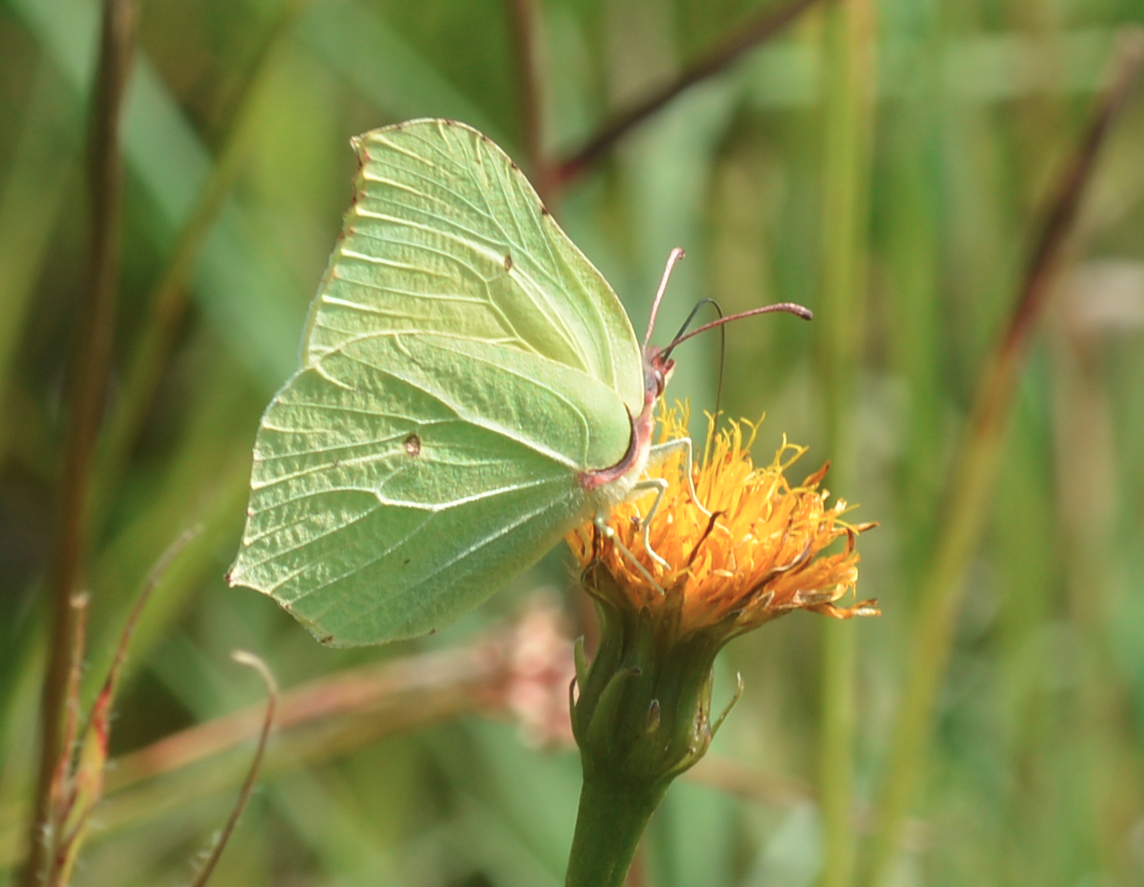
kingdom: Animalia
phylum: Arthropoda
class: Insecta
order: Lepidoptera
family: Pieridae
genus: Gonepteryx
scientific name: Gonepteryx rhamni
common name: Brimstone
